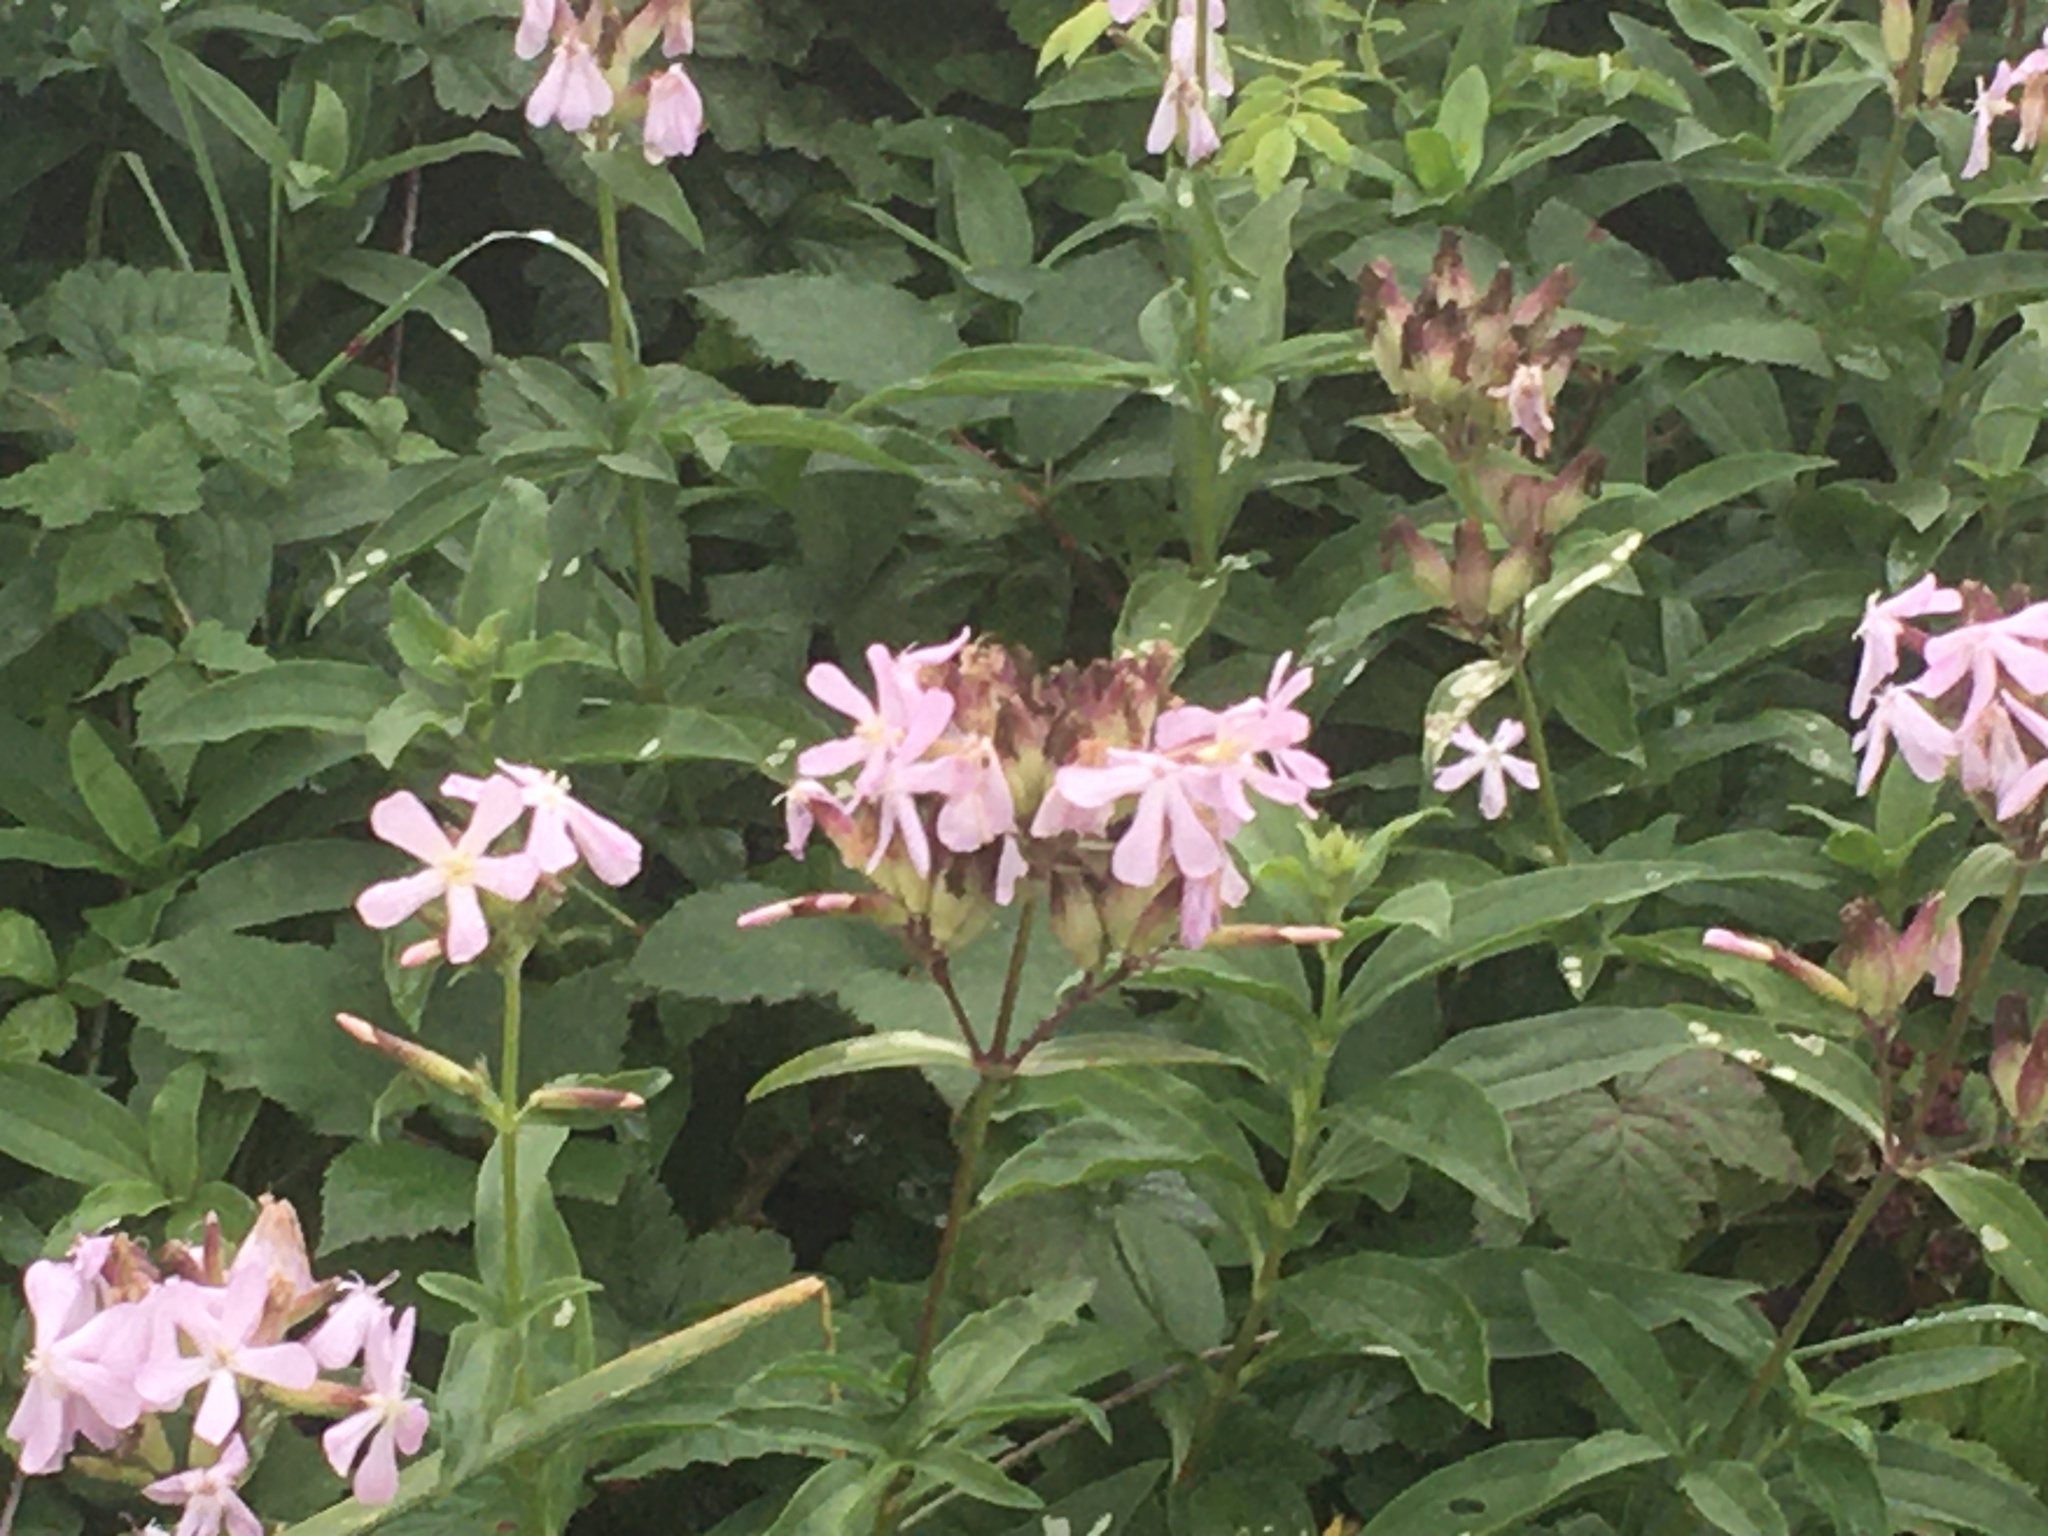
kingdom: Plantae
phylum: Tracheophyta
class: Magnoliopsida
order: Caryophyllales
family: Caryophyllaceae
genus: Saponaria
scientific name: Saponaria officinalis
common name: Soapwort
